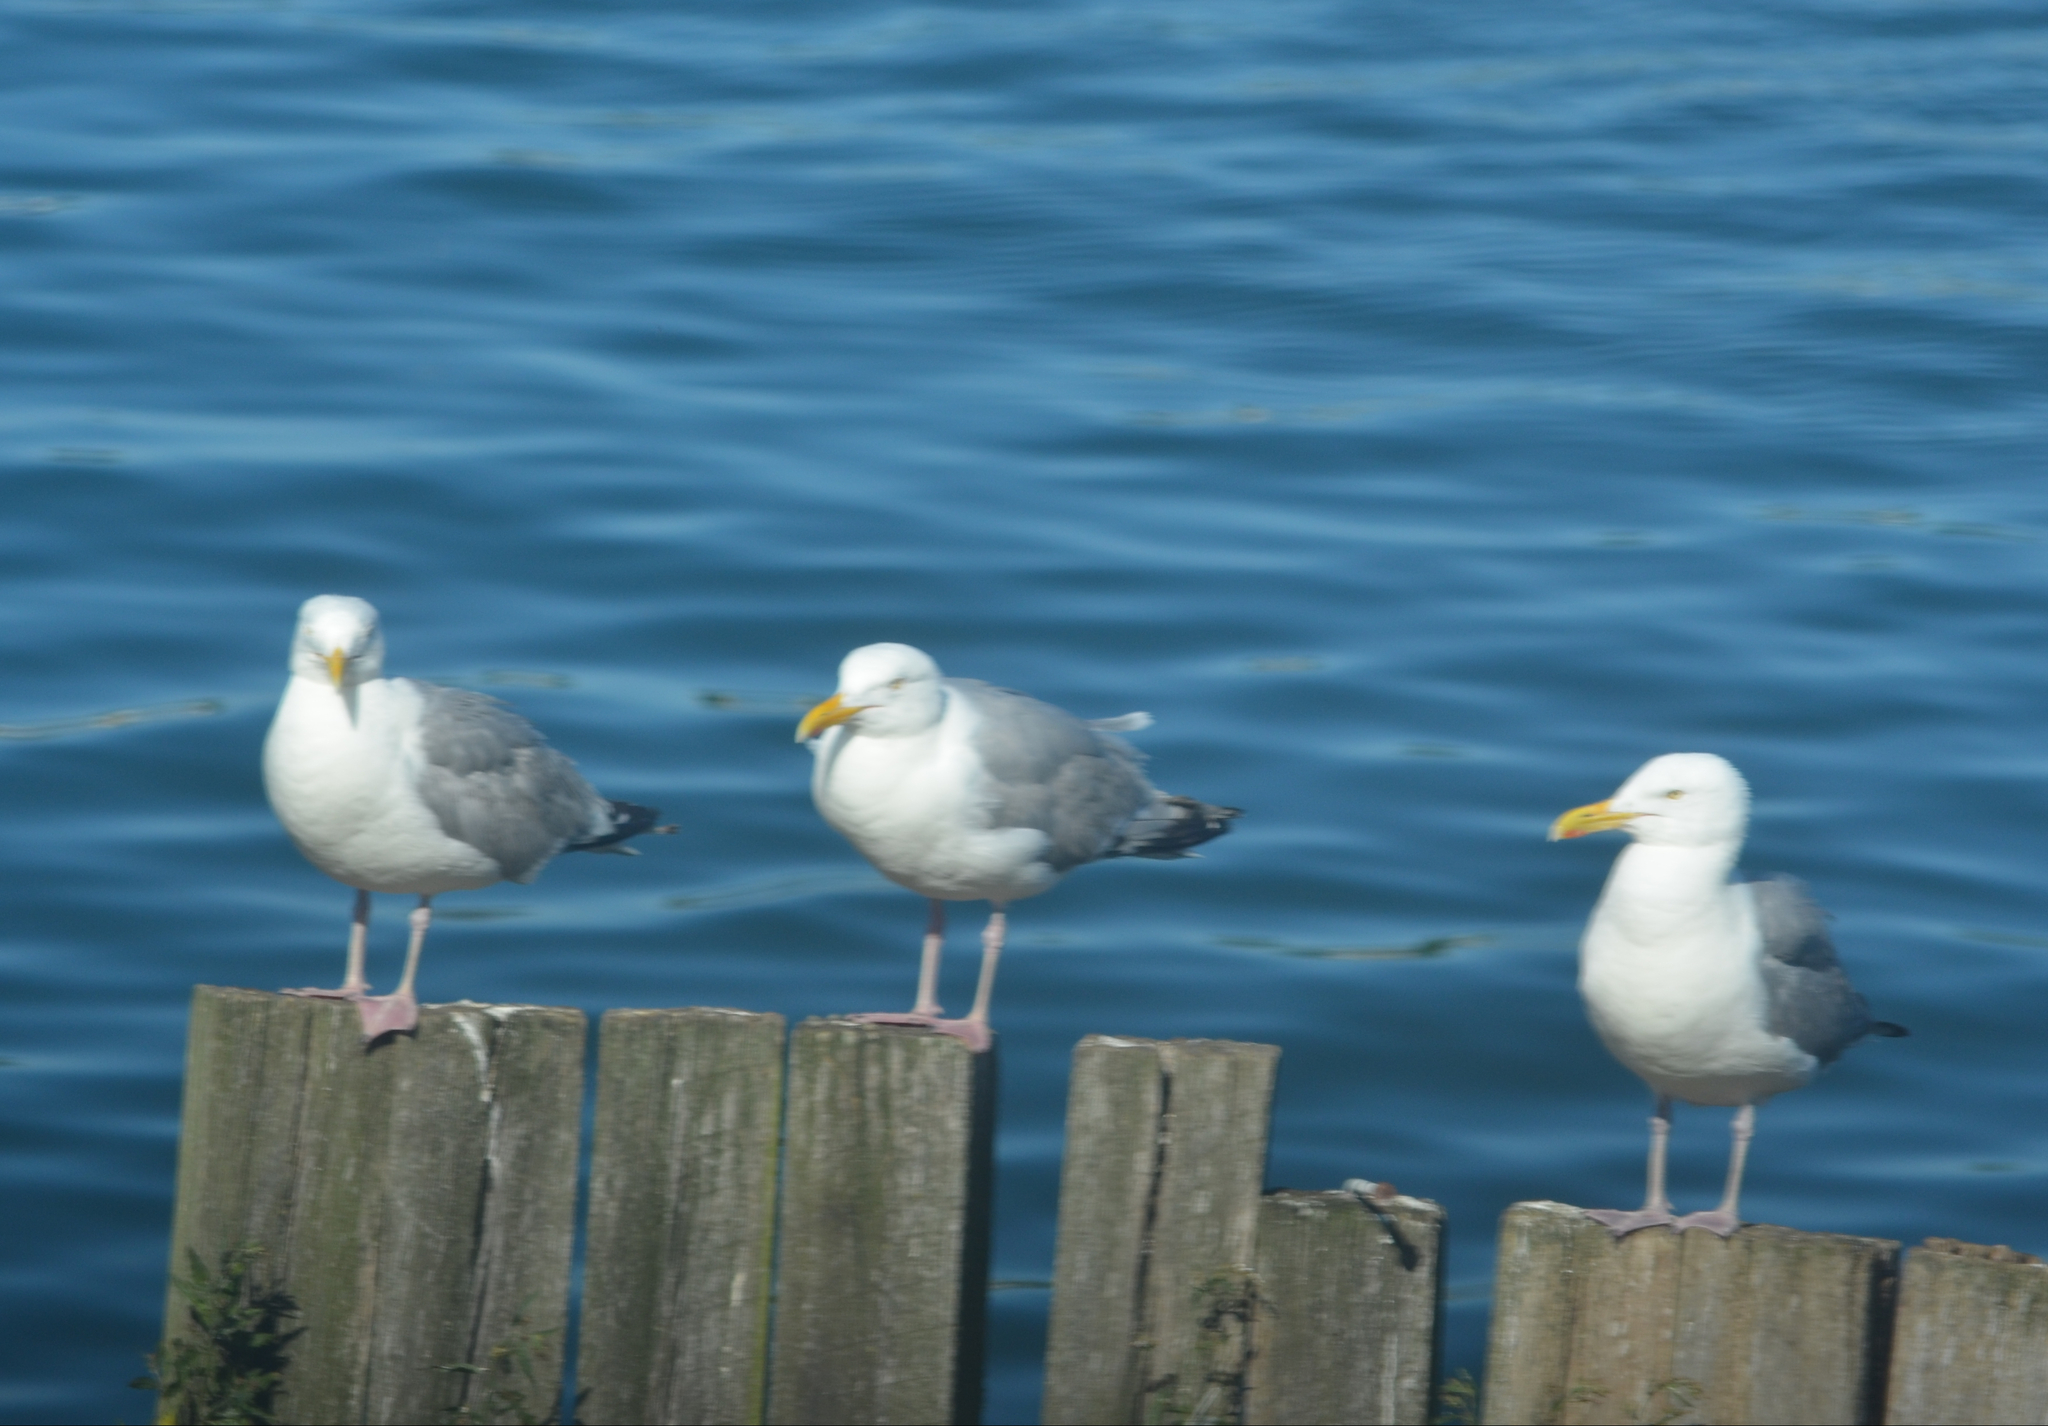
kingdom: Animalia
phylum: Chordata
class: Aves
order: Charadriiformes
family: Laridae
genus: Larus
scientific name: Larus argentatus
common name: Herring gull
